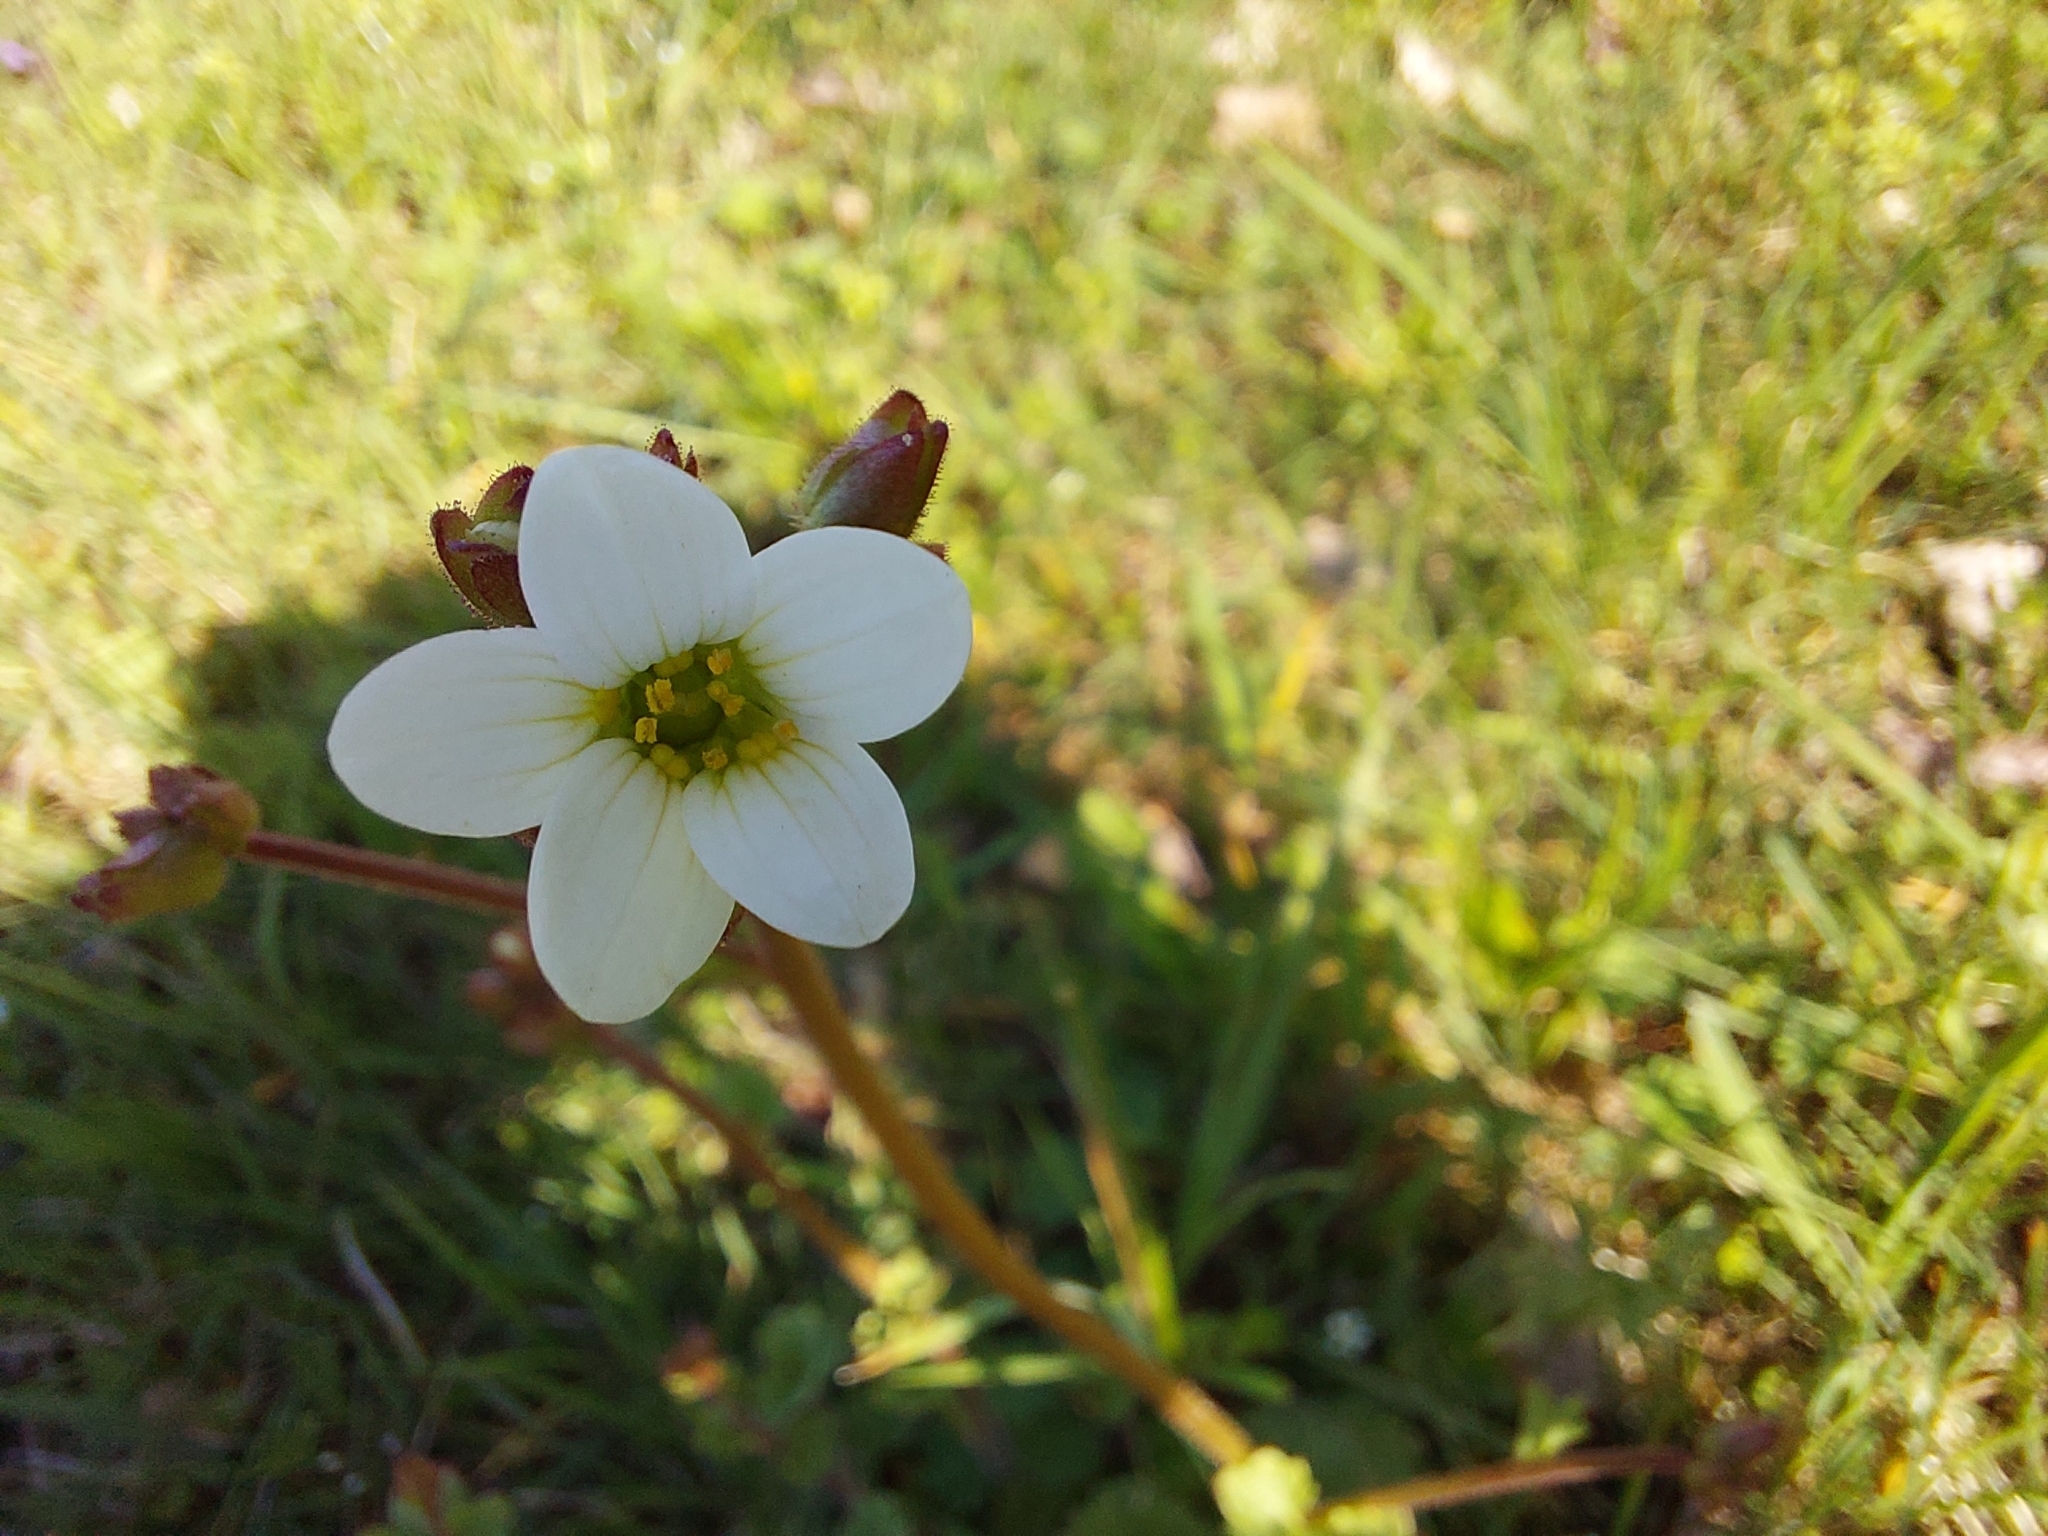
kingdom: Plantae
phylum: Tracheophyta
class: Magnoliopsida
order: Saxifragales
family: Saxifragaceae
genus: Saxifraga
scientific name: Saxifraga granulata
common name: Meadow saxifrage
